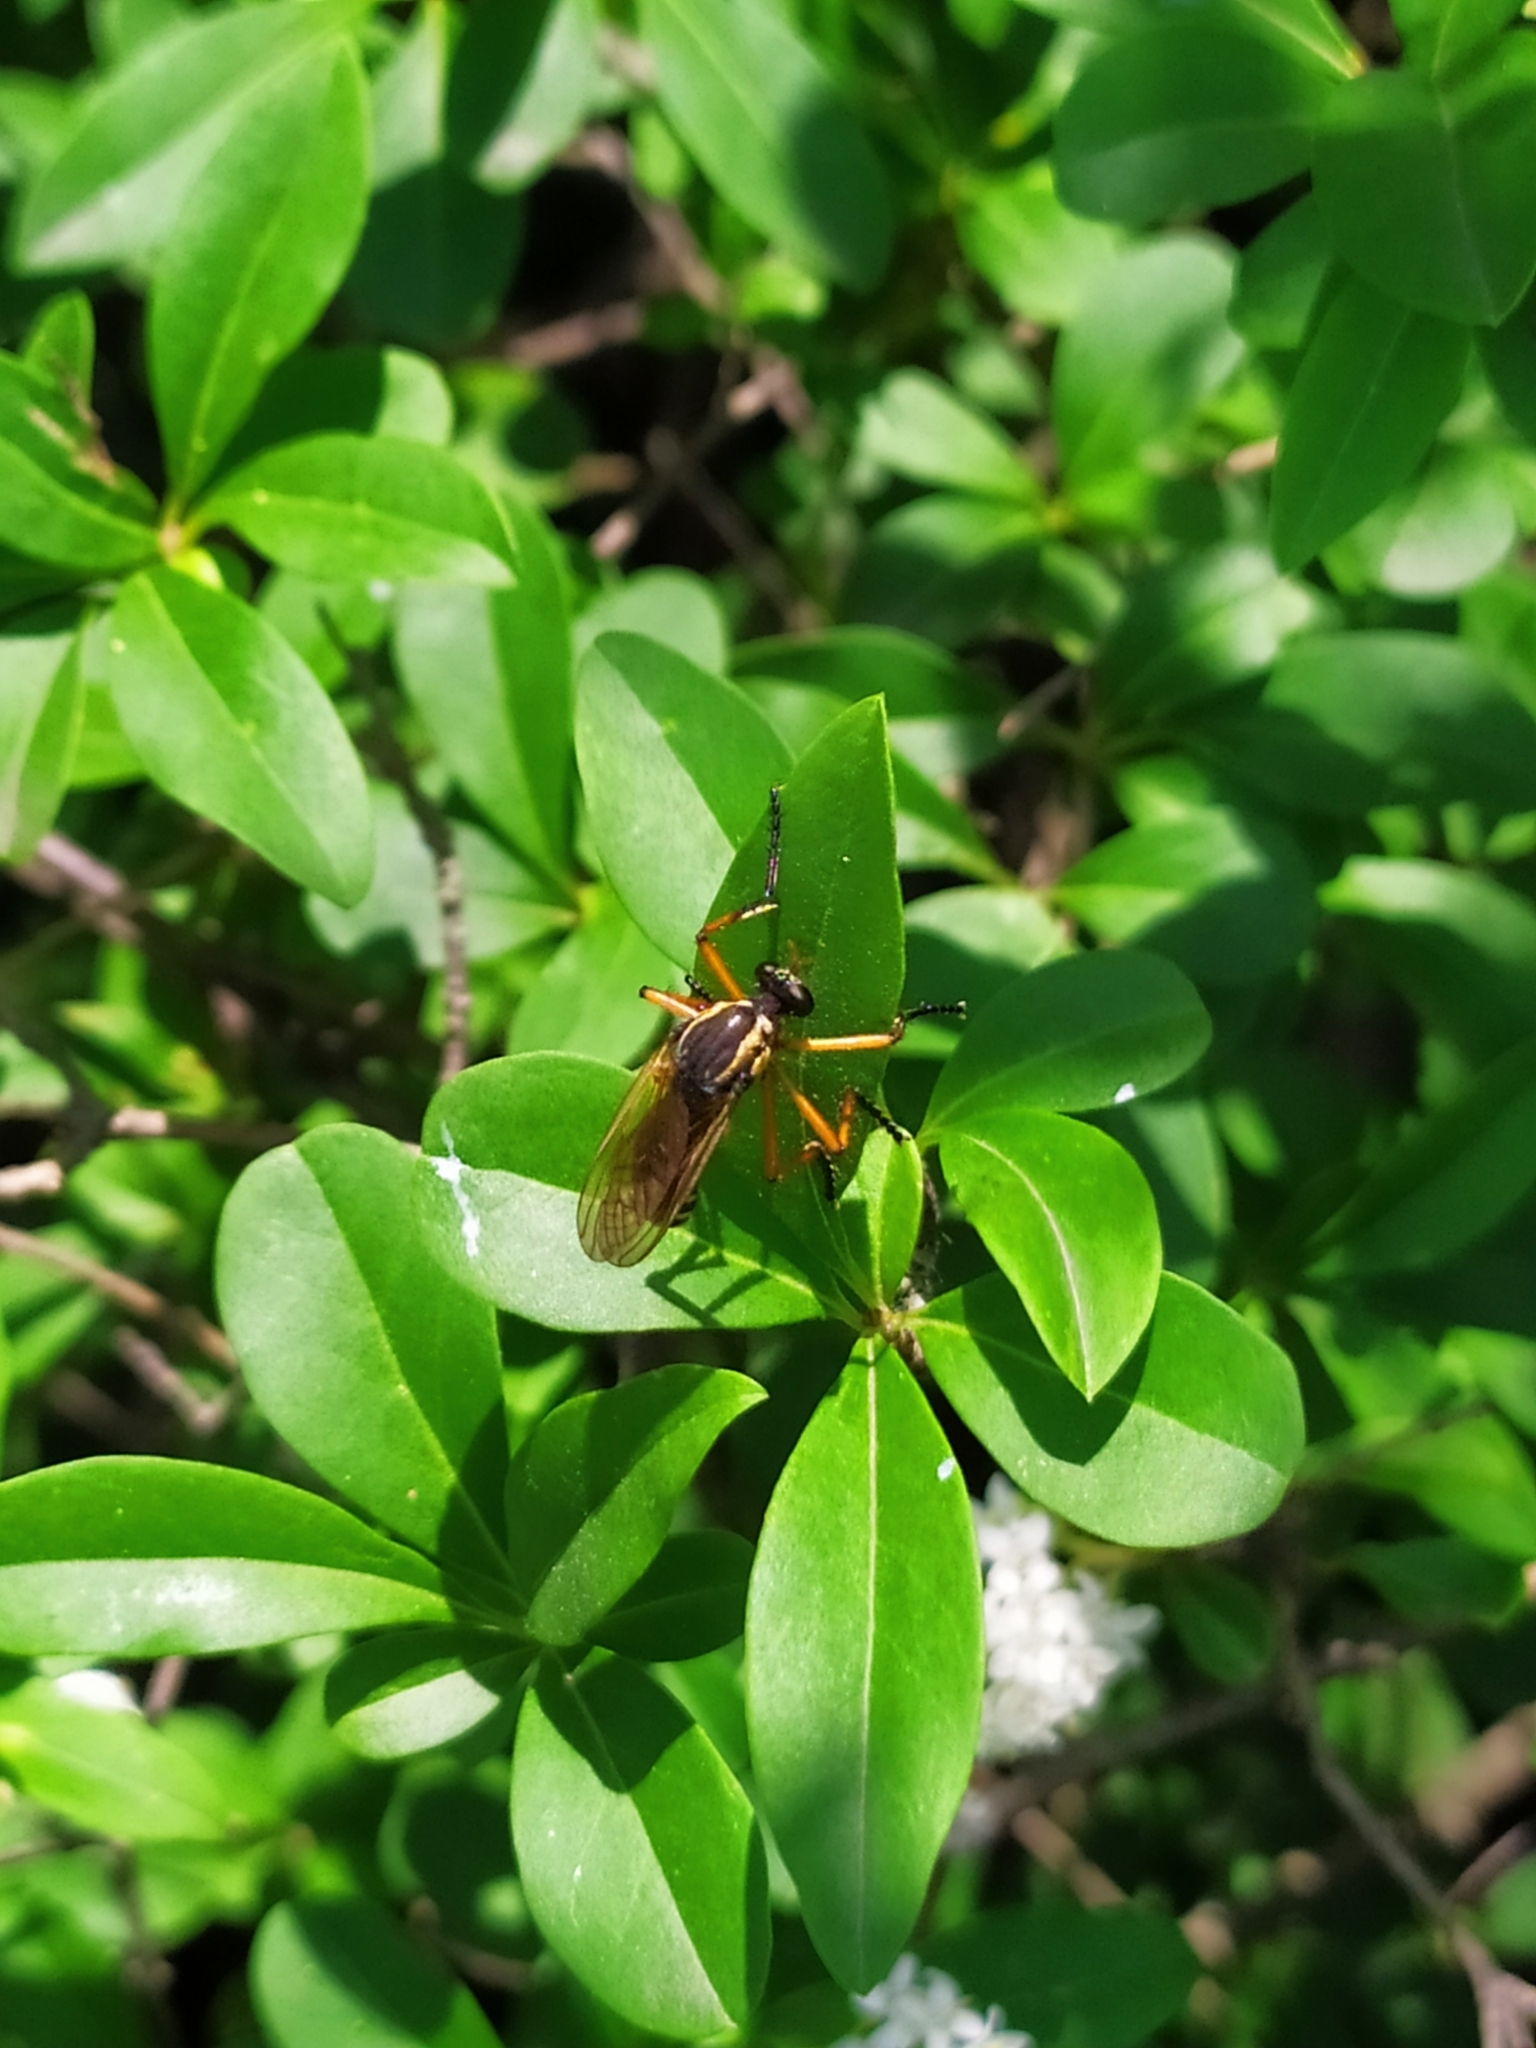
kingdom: Animalia
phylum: Arthropoda
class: Insecta
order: Diptera
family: Asilidae
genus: Molobratia
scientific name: Molobratia teutona
